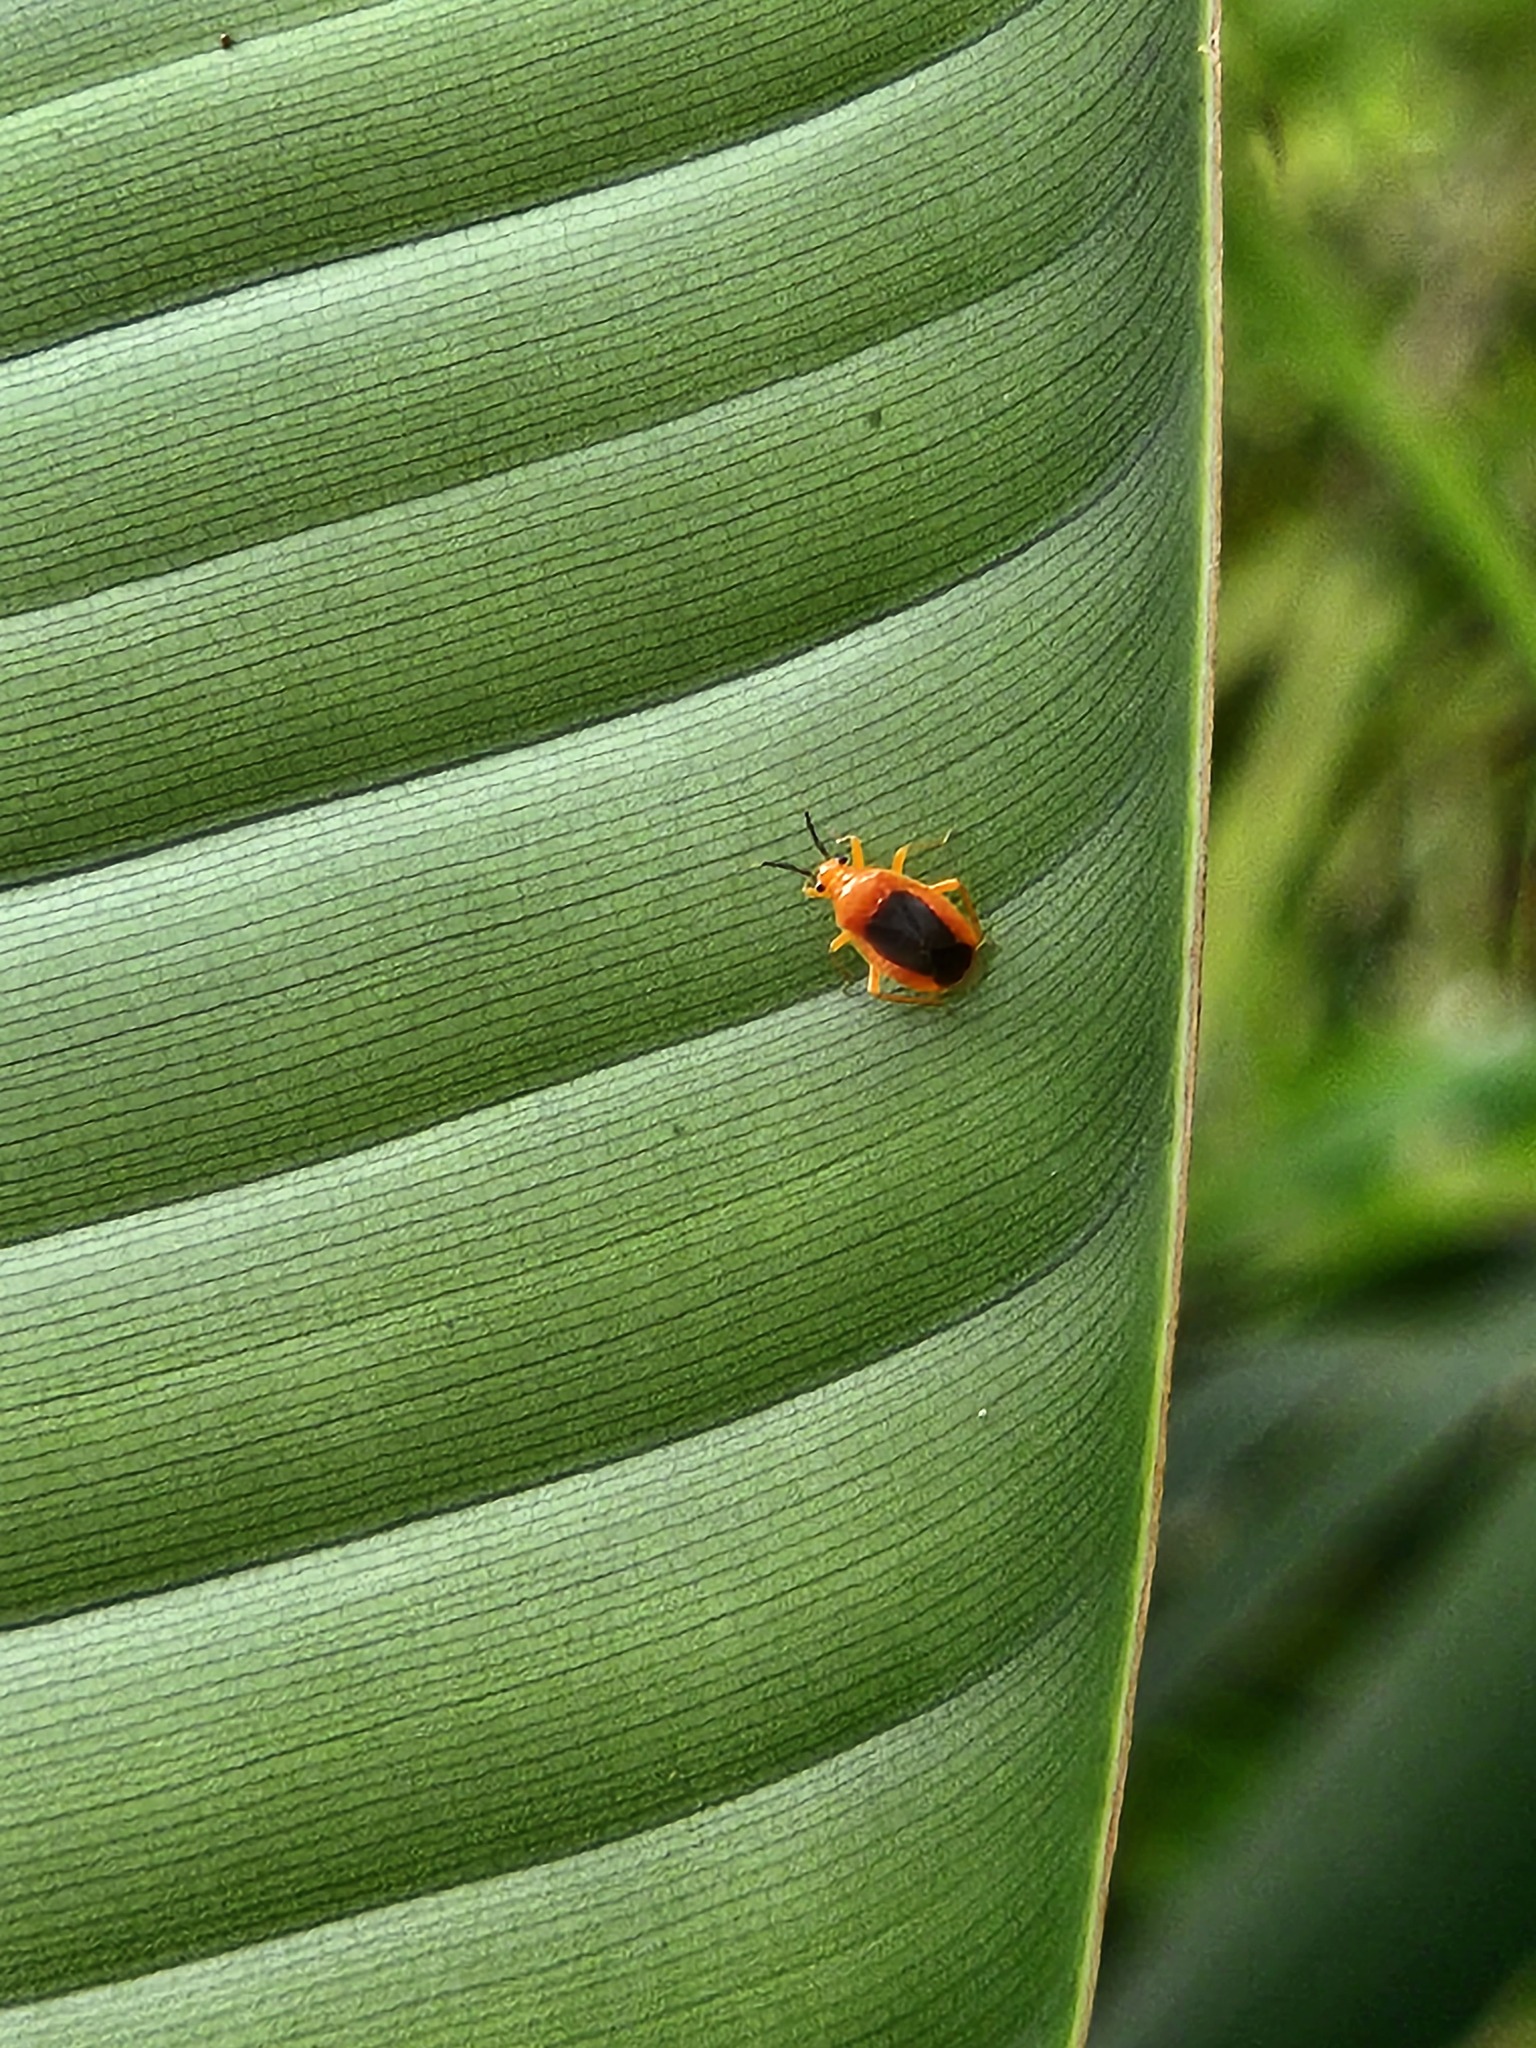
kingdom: Animalia
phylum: Arthropoda
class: Insecta
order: Hemiptera
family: Miridae
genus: Tenthecoris
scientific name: Tenthecoris bicolor
